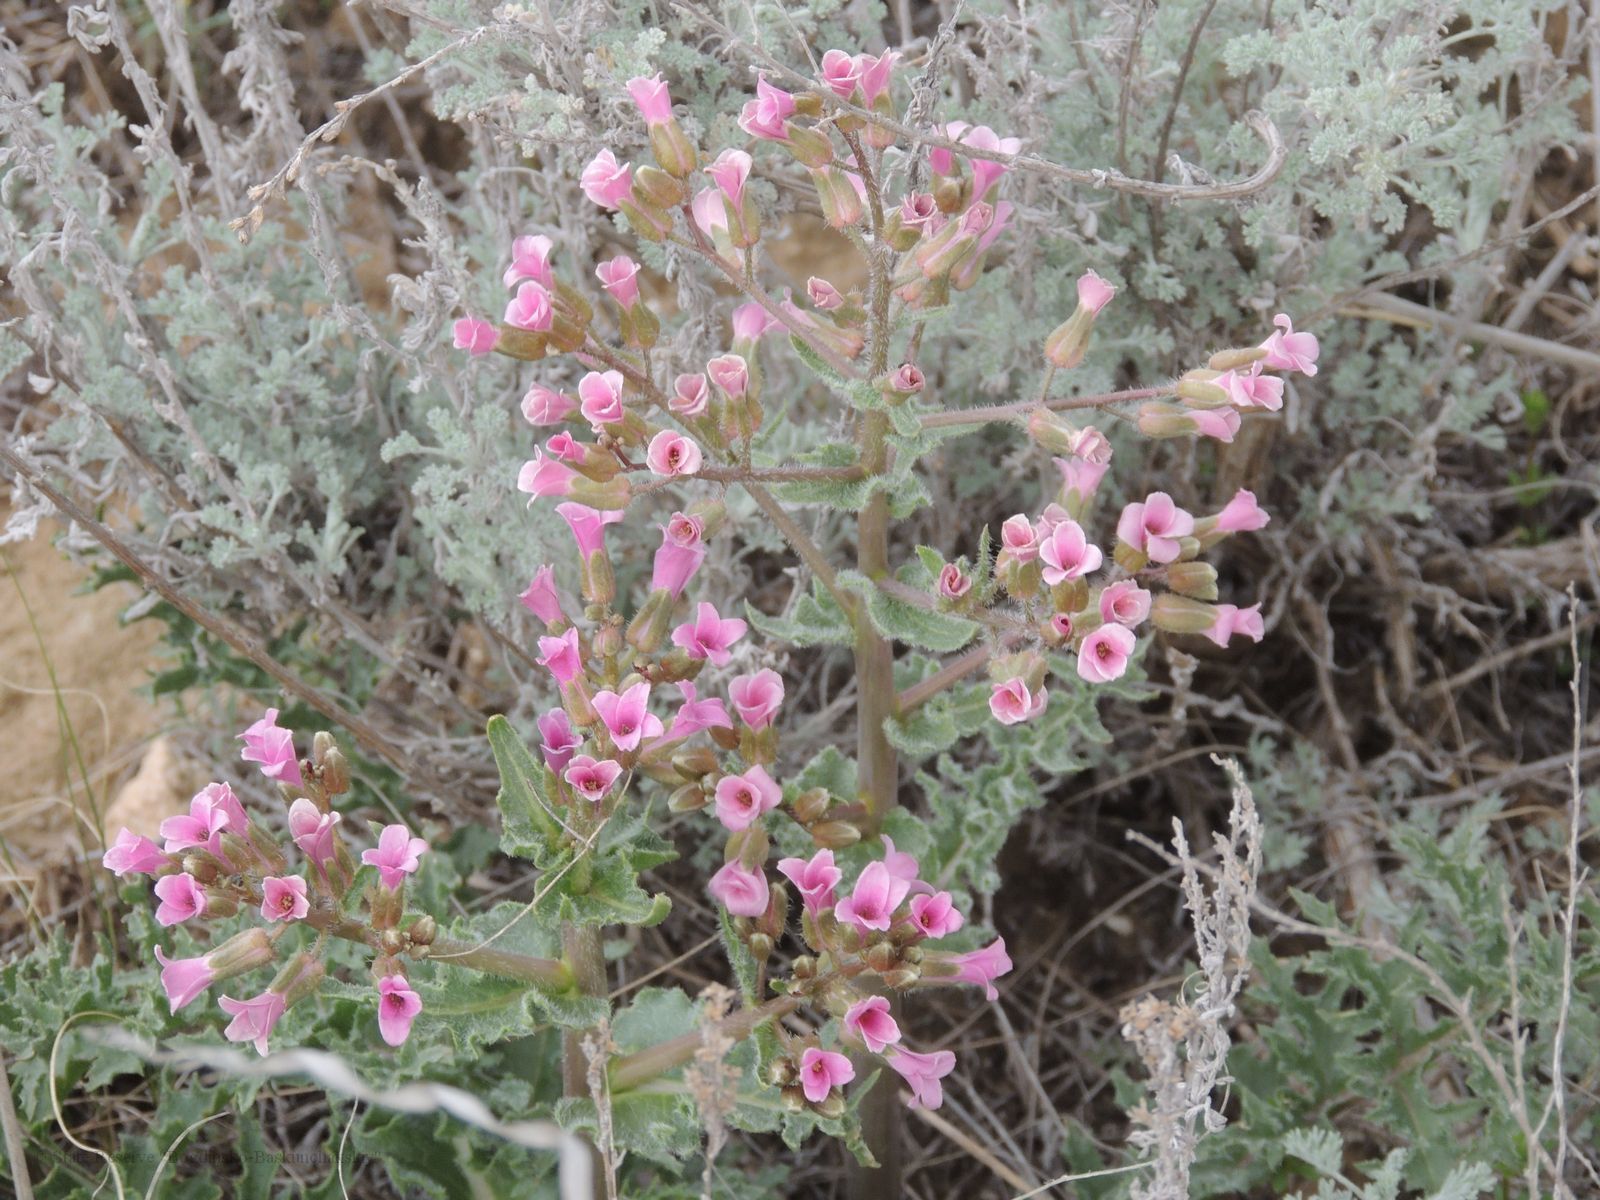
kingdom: Plantae
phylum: Tracheophyta
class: Magnoliopsida
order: Brassicales
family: Brassicaceae
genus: Megacarpaea
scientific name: Megacarpaea megalocarpa
